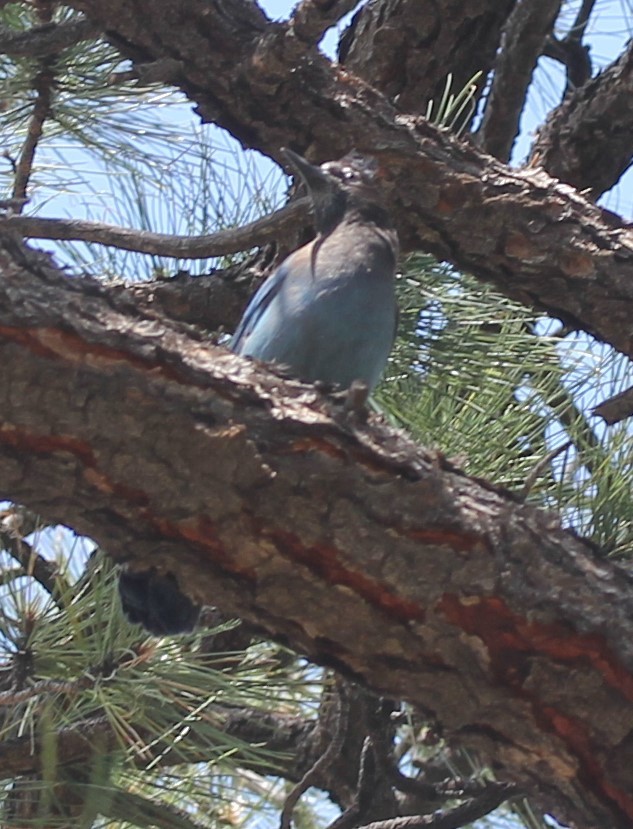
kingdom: Animalia
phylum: Chordata
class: Aves
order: Passeriformes
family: Corvidae
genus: Cyanocitta
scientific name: Cyanocitta stelleri
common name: Steller's jay
